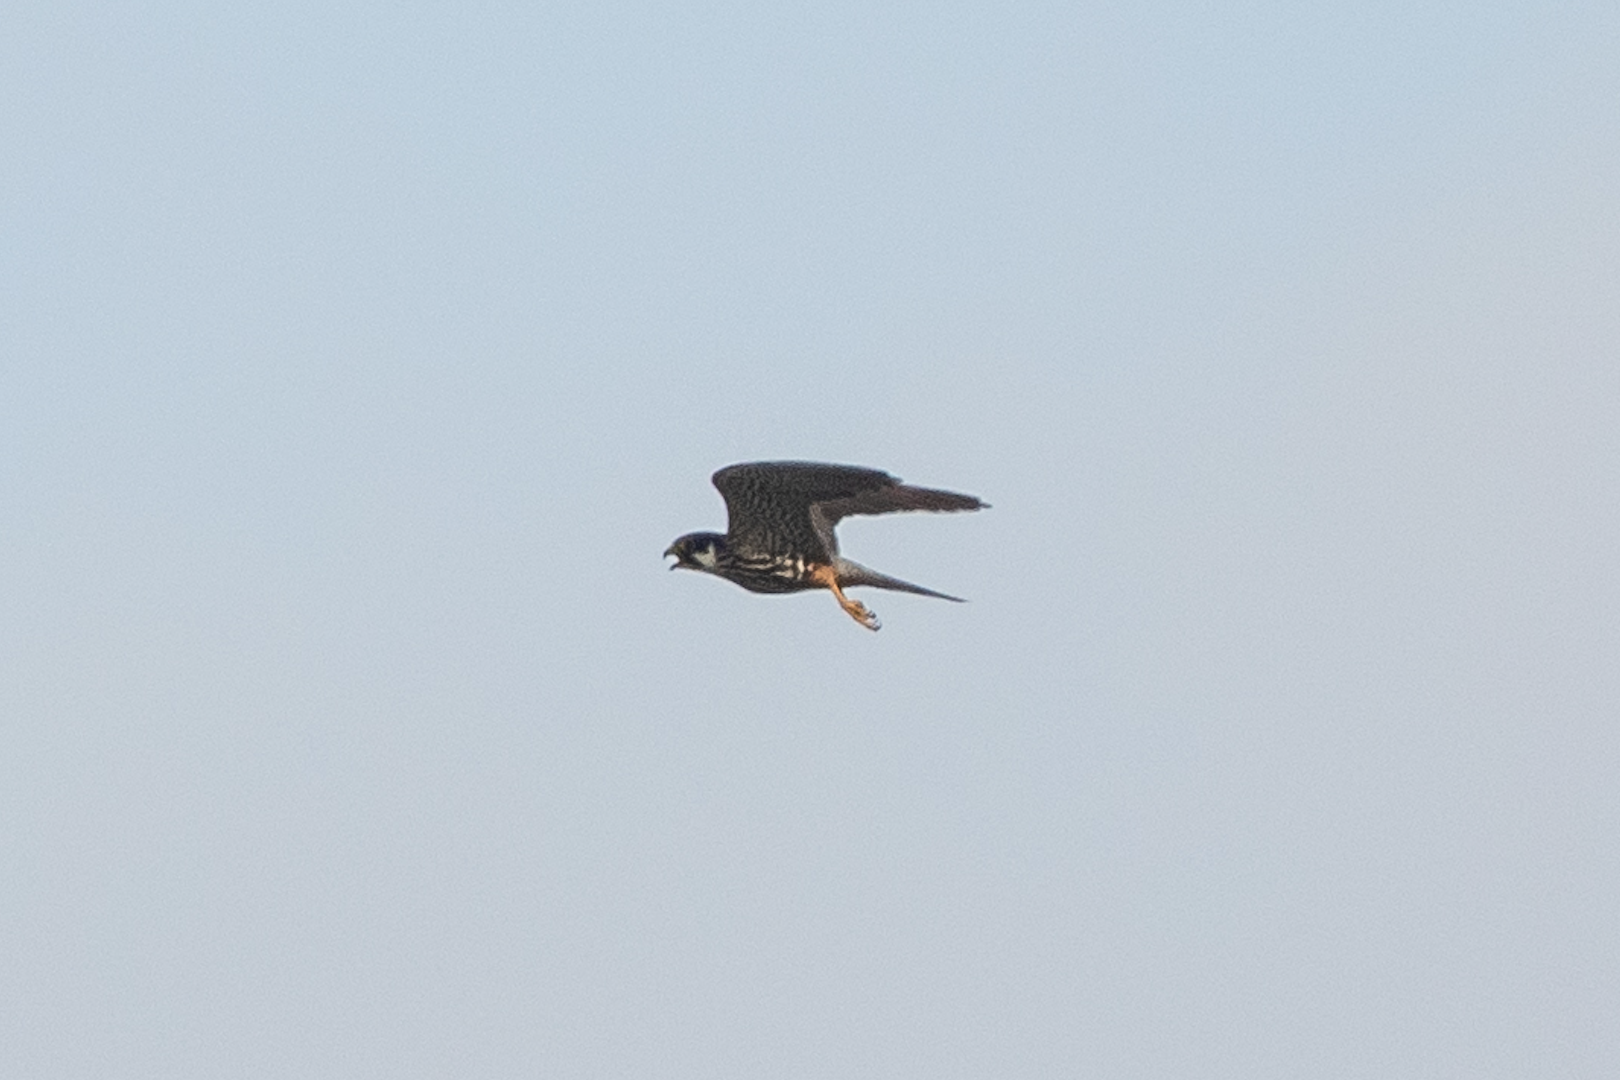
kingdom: Animalia
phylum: Chordata
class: Aves
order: Falconiformes
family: Falconidae
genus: Falco
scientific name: Falco subbuteo
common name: Eurasian hobby
